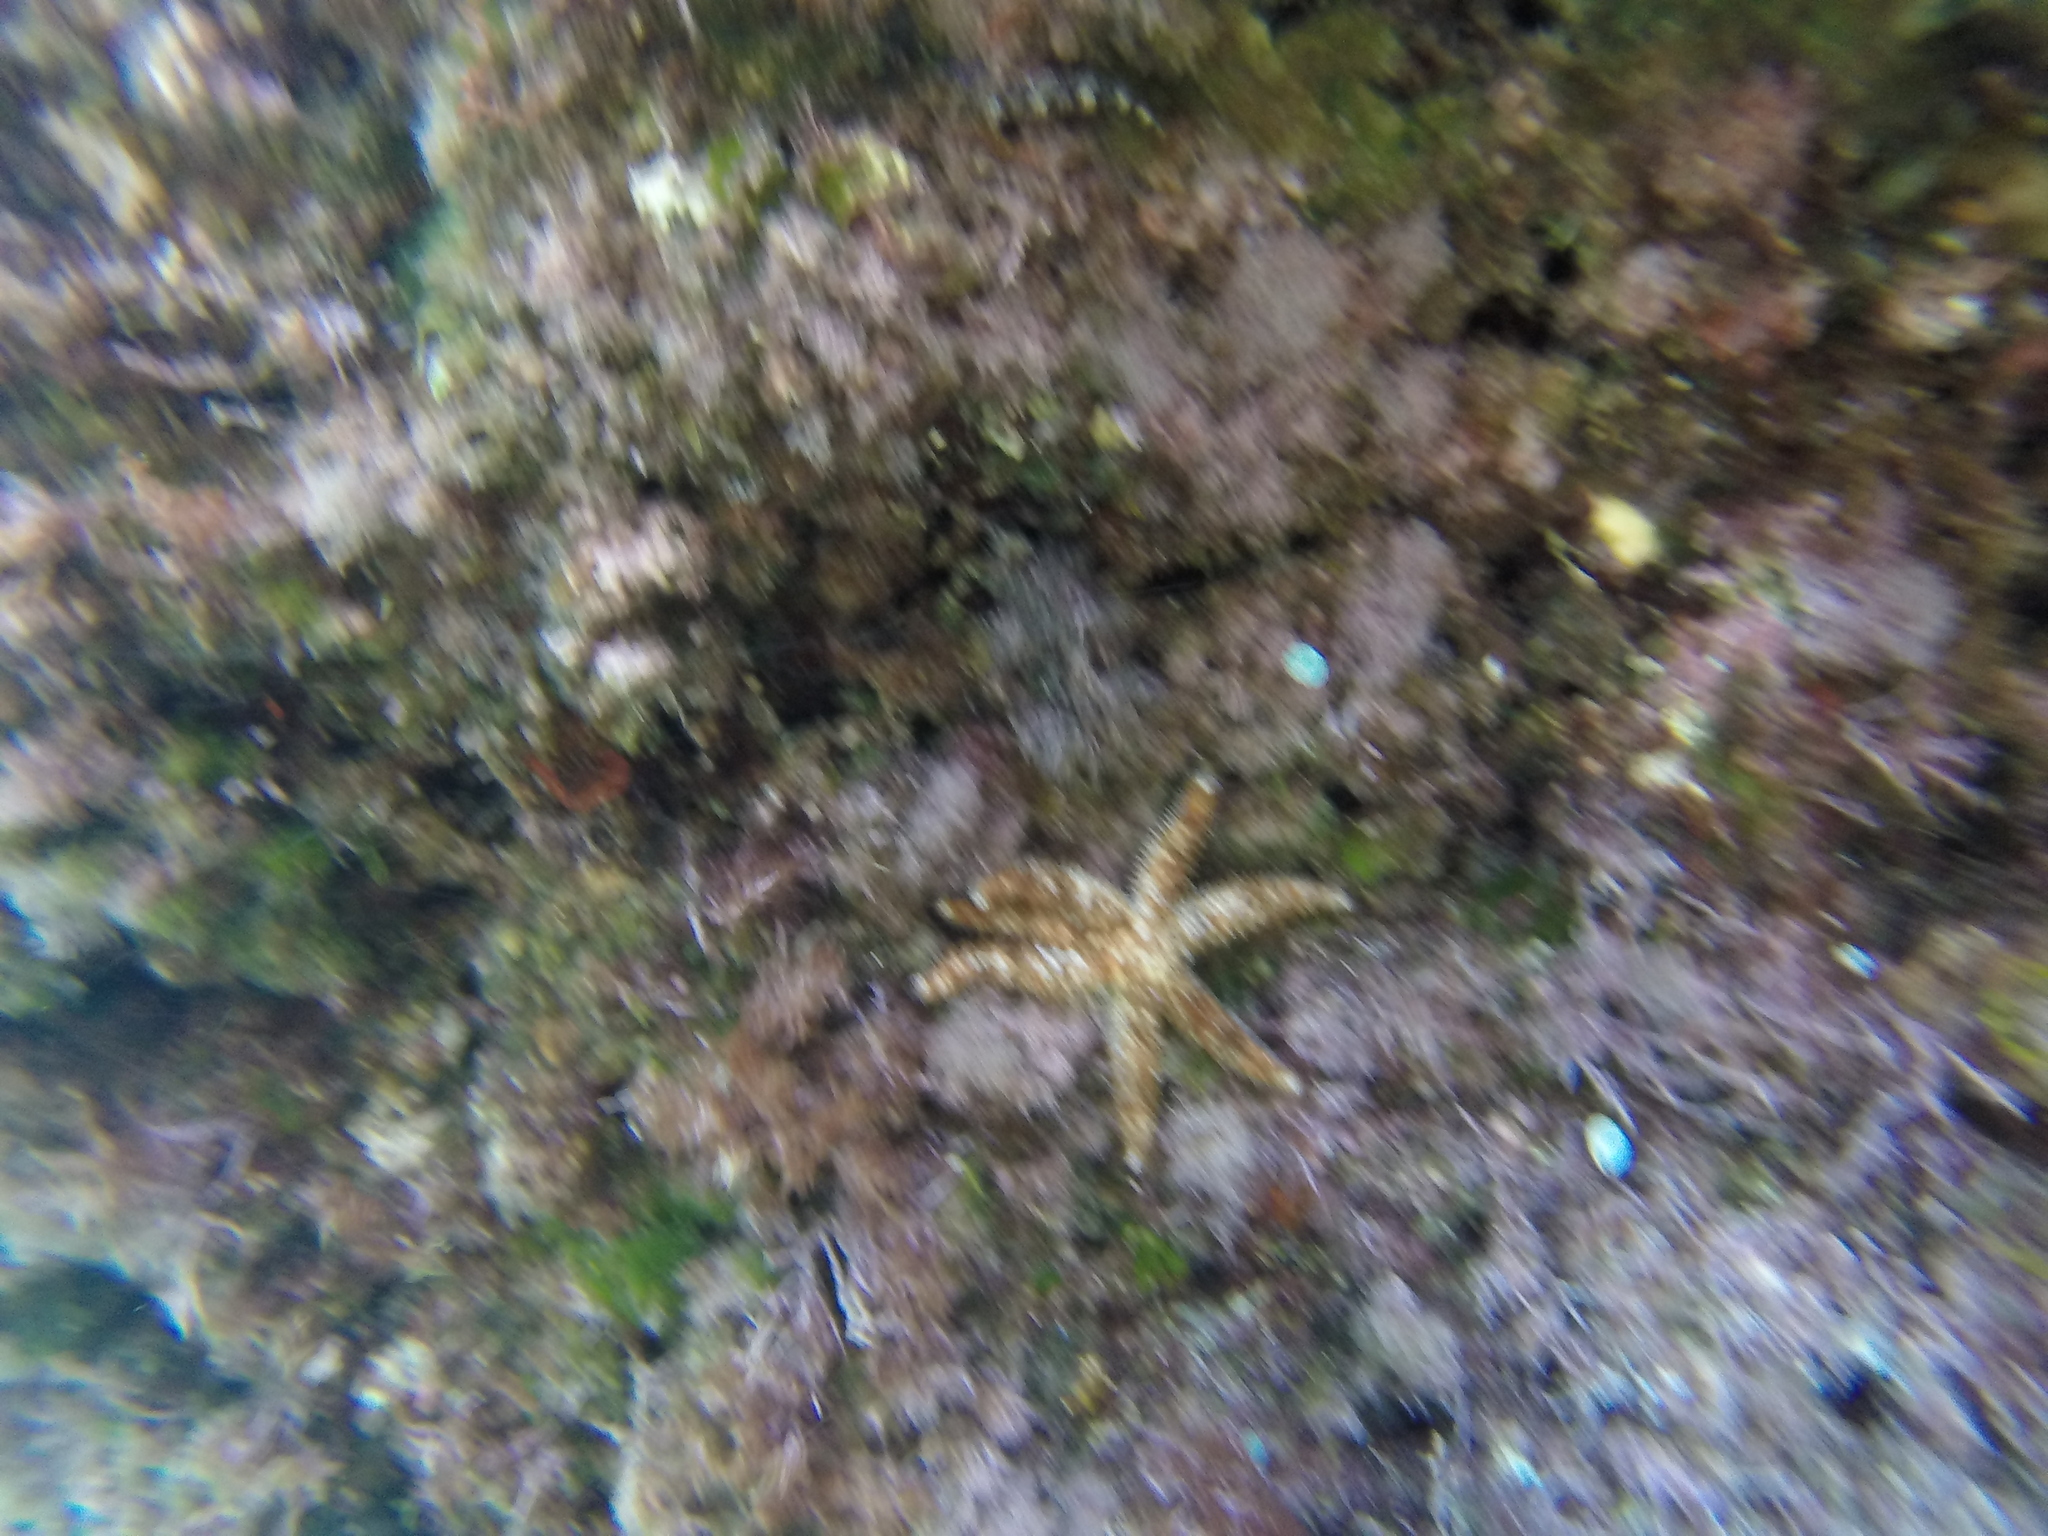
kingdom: Animalia
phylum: Echinodermata
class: Asteroidea
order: Forcipulatida
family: Asteriidae
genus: Coscinasterias
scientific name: Coscinasterias tenuispina
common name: Blue spiny starfish
